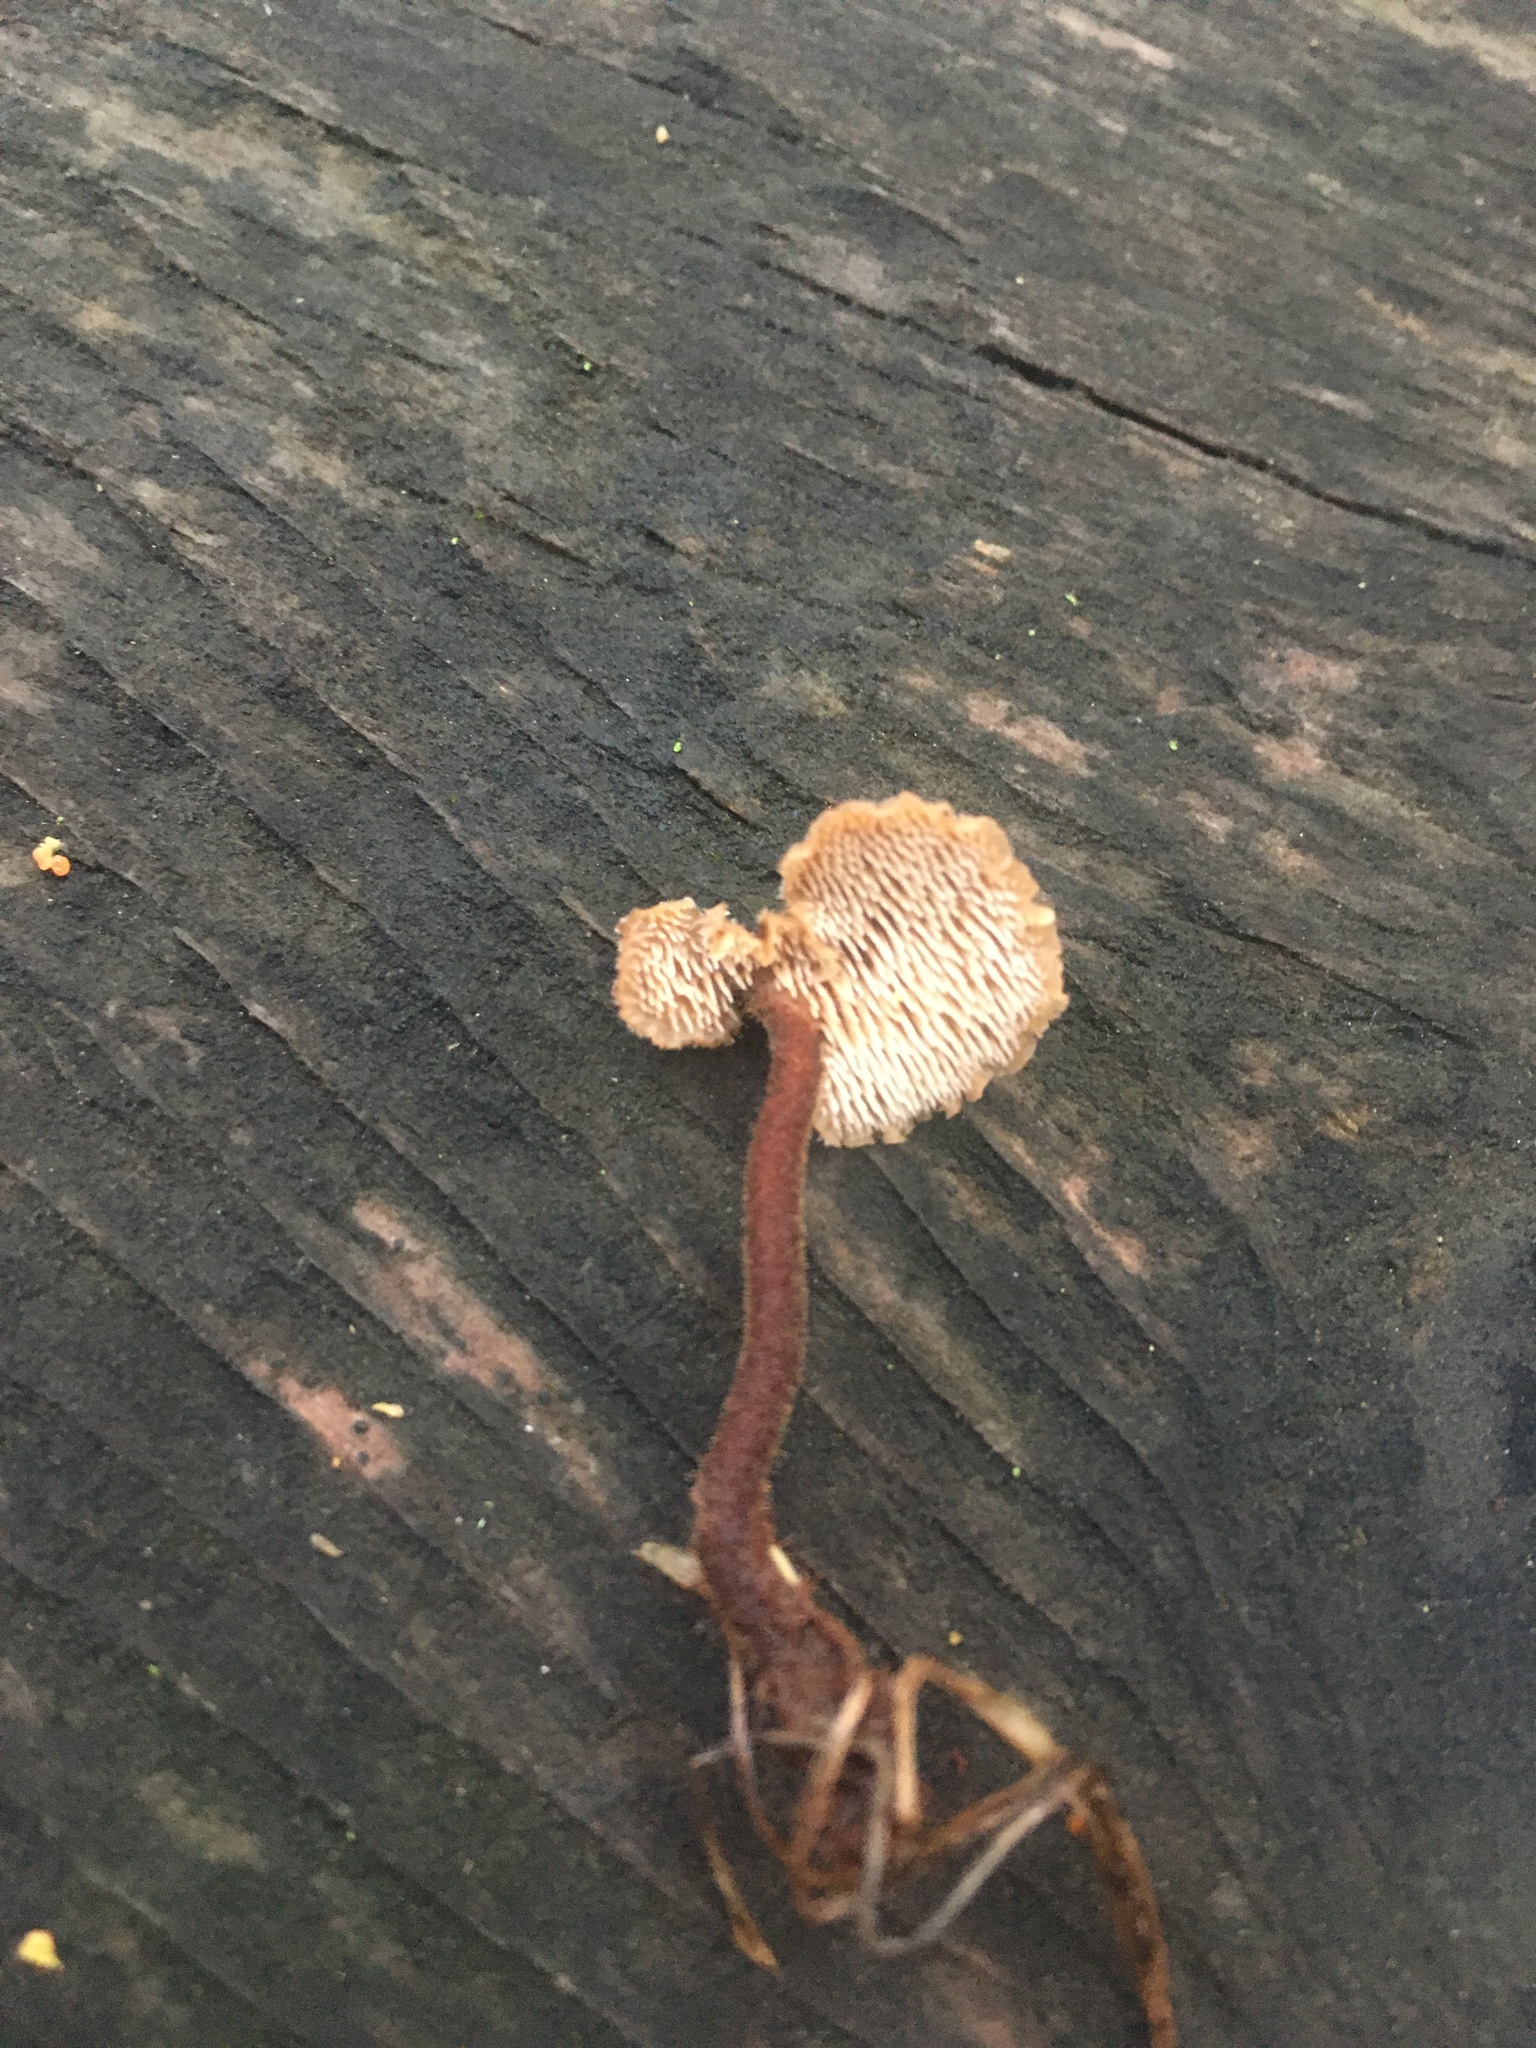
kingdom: Fungi
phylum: Basidiomycota
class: Agaricomycetes
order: Russulales
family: Auriscalpiaceae
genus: Auriscalpium
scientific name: Auriscalpium vulgare
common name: Earpick fungus
